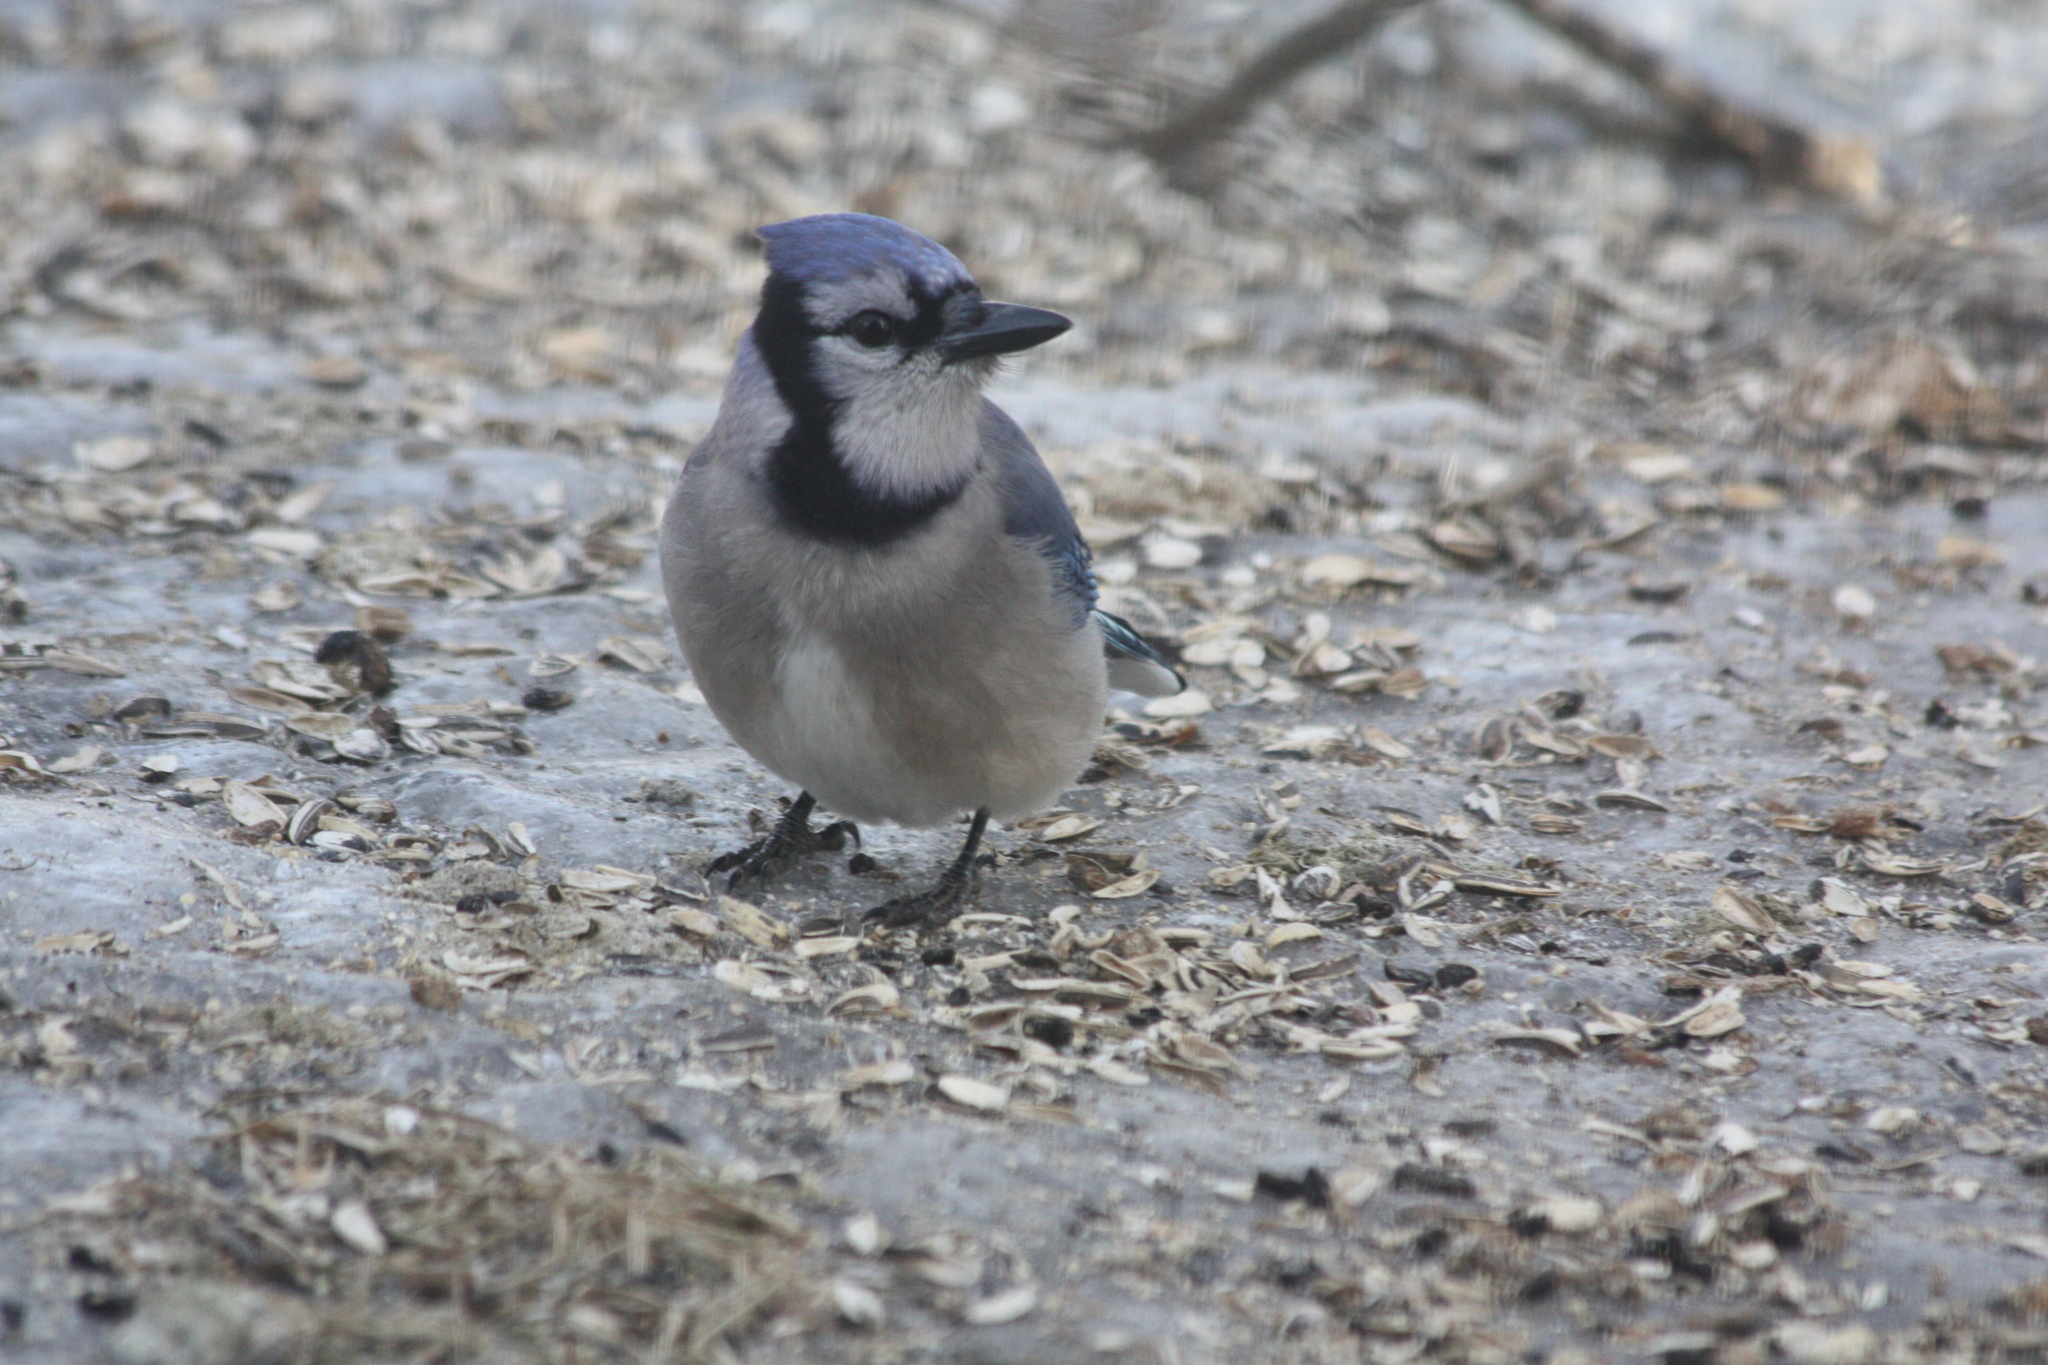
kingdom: Animalia
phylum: Chordata
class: Aves
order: Passeriformes
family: Corvidae
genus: Cyanocitta
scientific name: Cyanocitta cristata
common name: Blue jay
